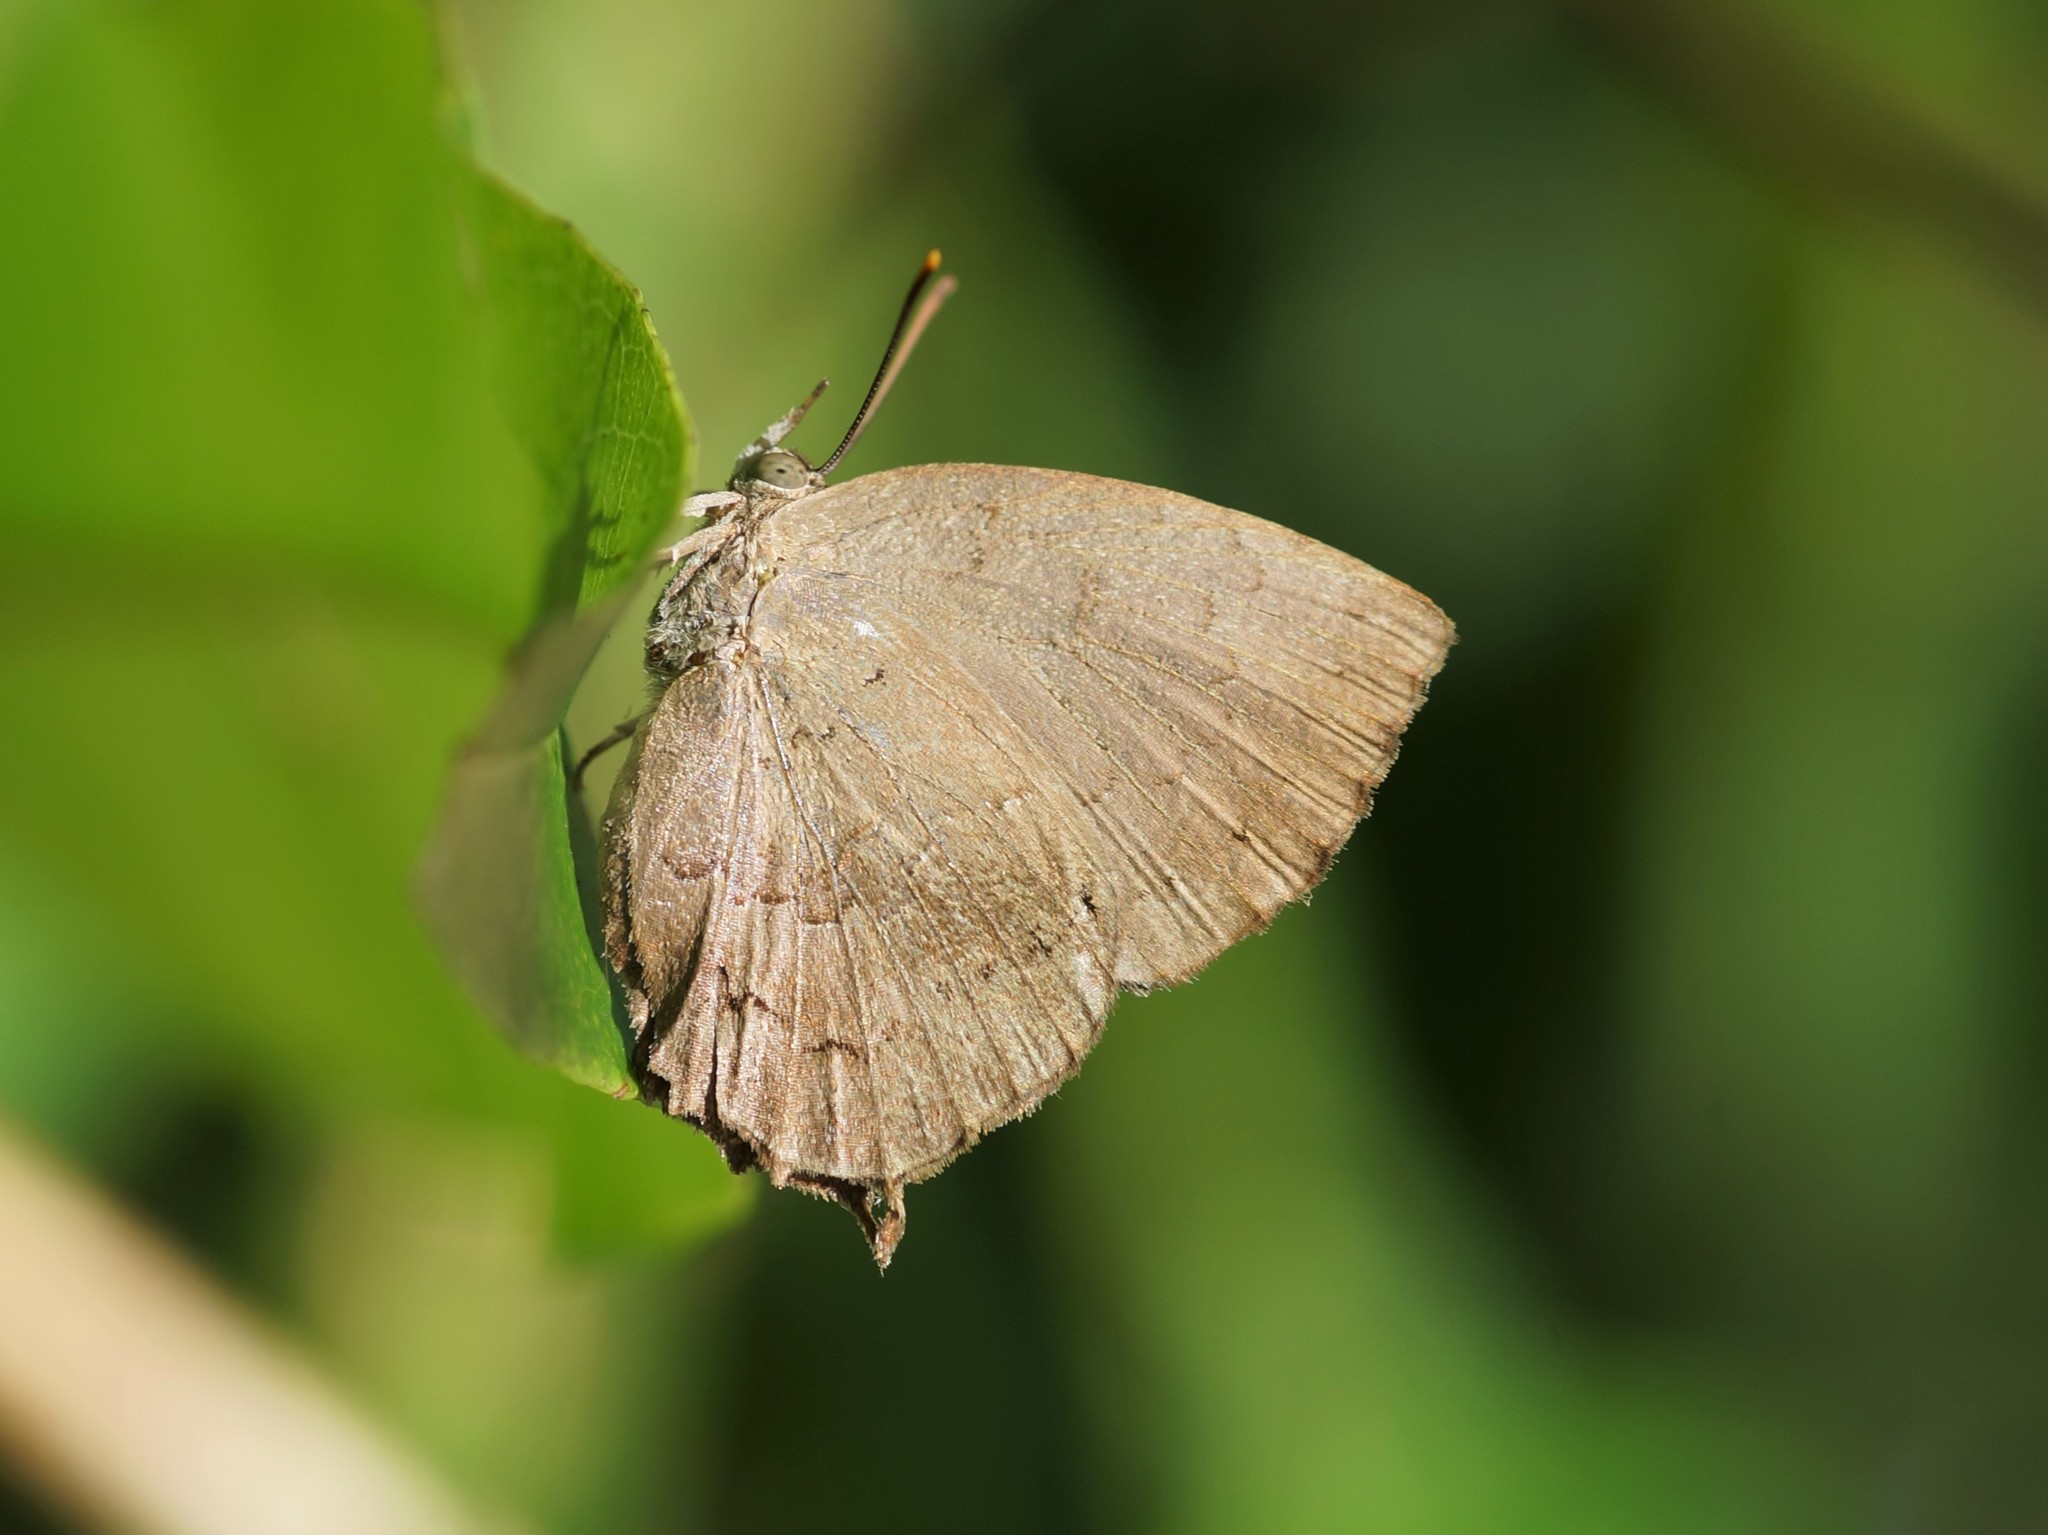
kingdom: Animalia
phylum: Arthropoda
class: Insecta
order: Lepidoptera
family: Lycaenidae
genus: Surendra
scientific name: Surendra quercetorum
